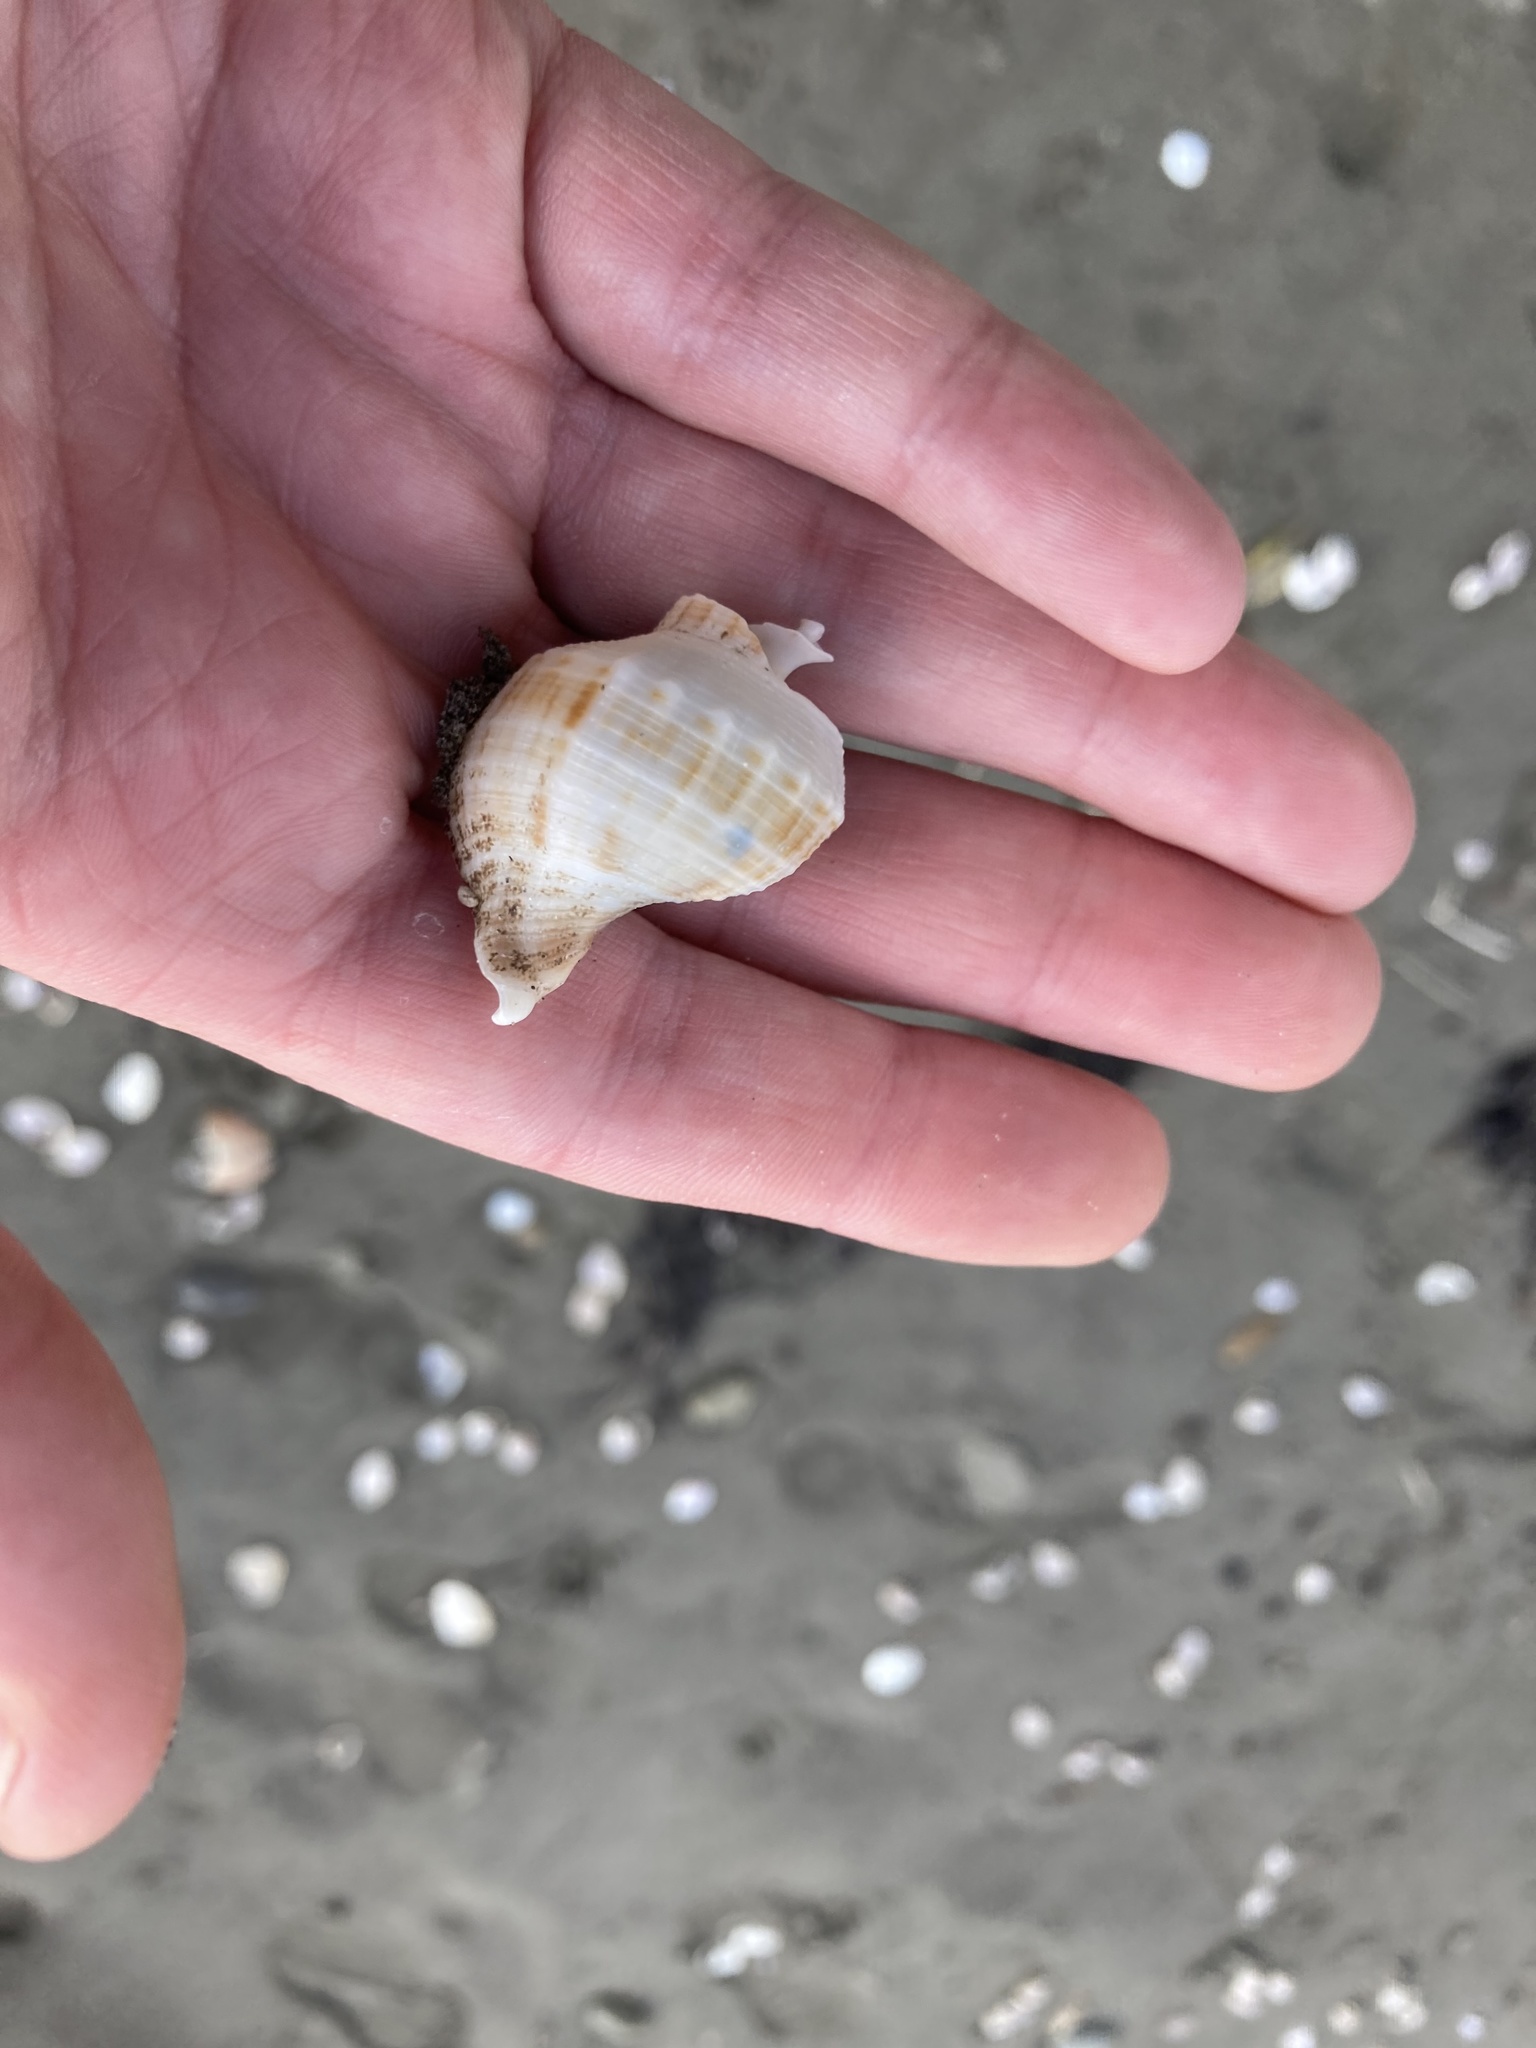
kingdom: Animalia
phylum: Mollusca
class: Gastropoda
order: Neogastropoda
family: Prosiphonidae
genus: Austrofusus
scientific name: Austrofusus glans
